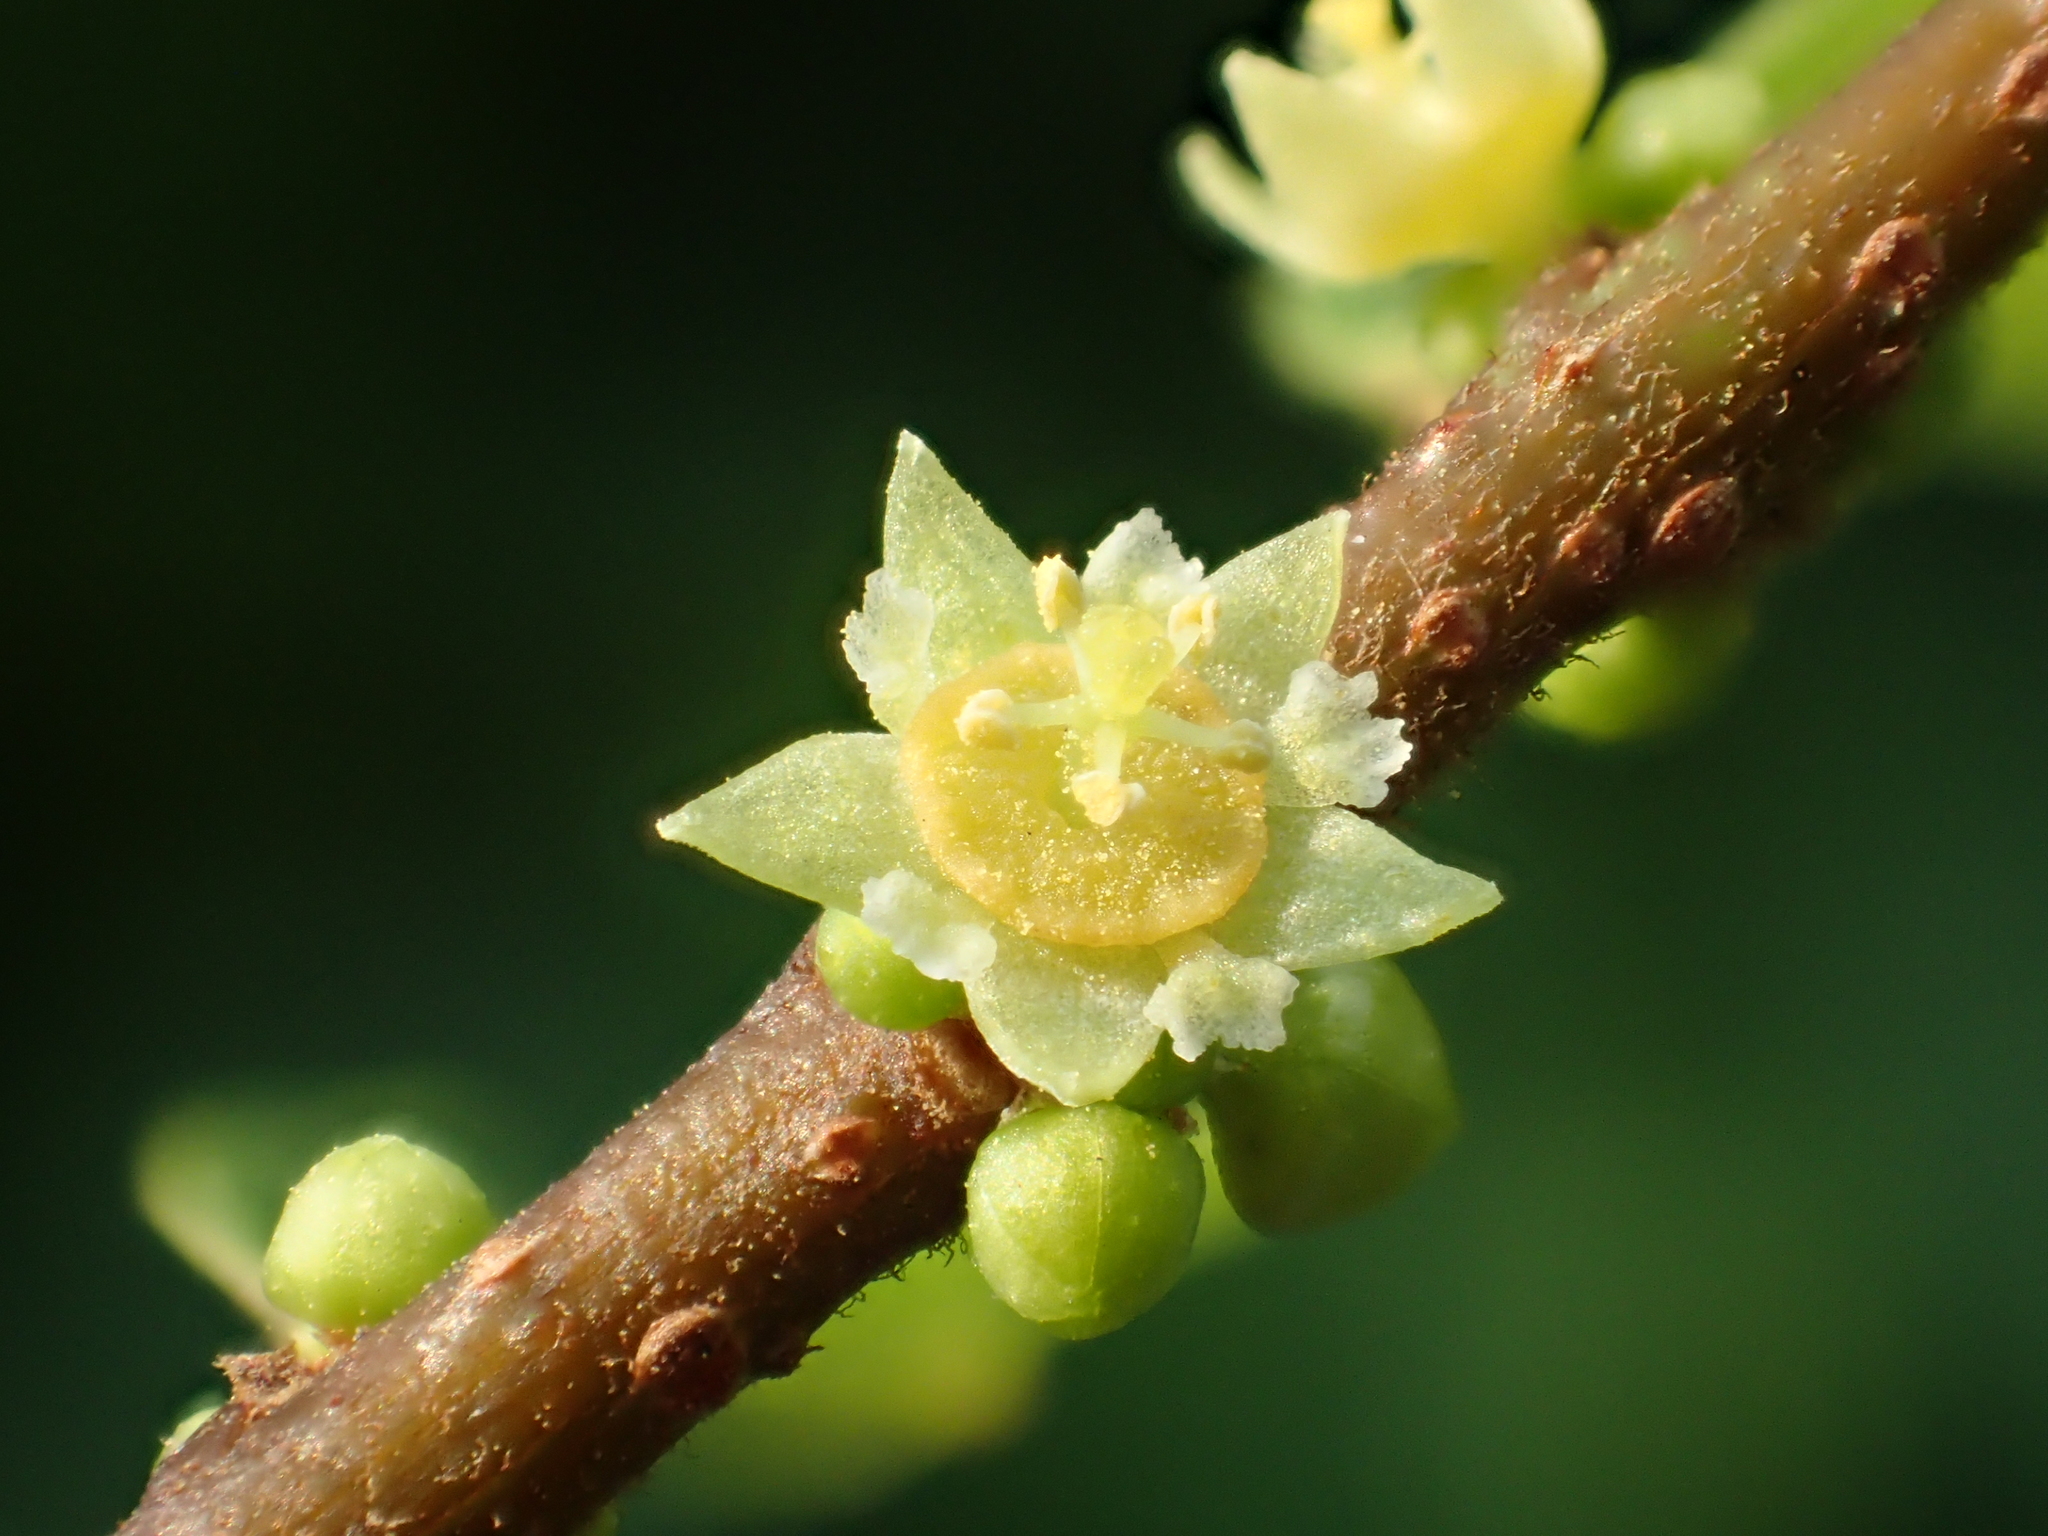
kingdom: Plantae
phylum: Tracheophyta
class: Magnoliopsida
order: Malpighiales
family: Phyllanthaceae
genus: Bridelia
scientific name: Bridelia tomentosa
